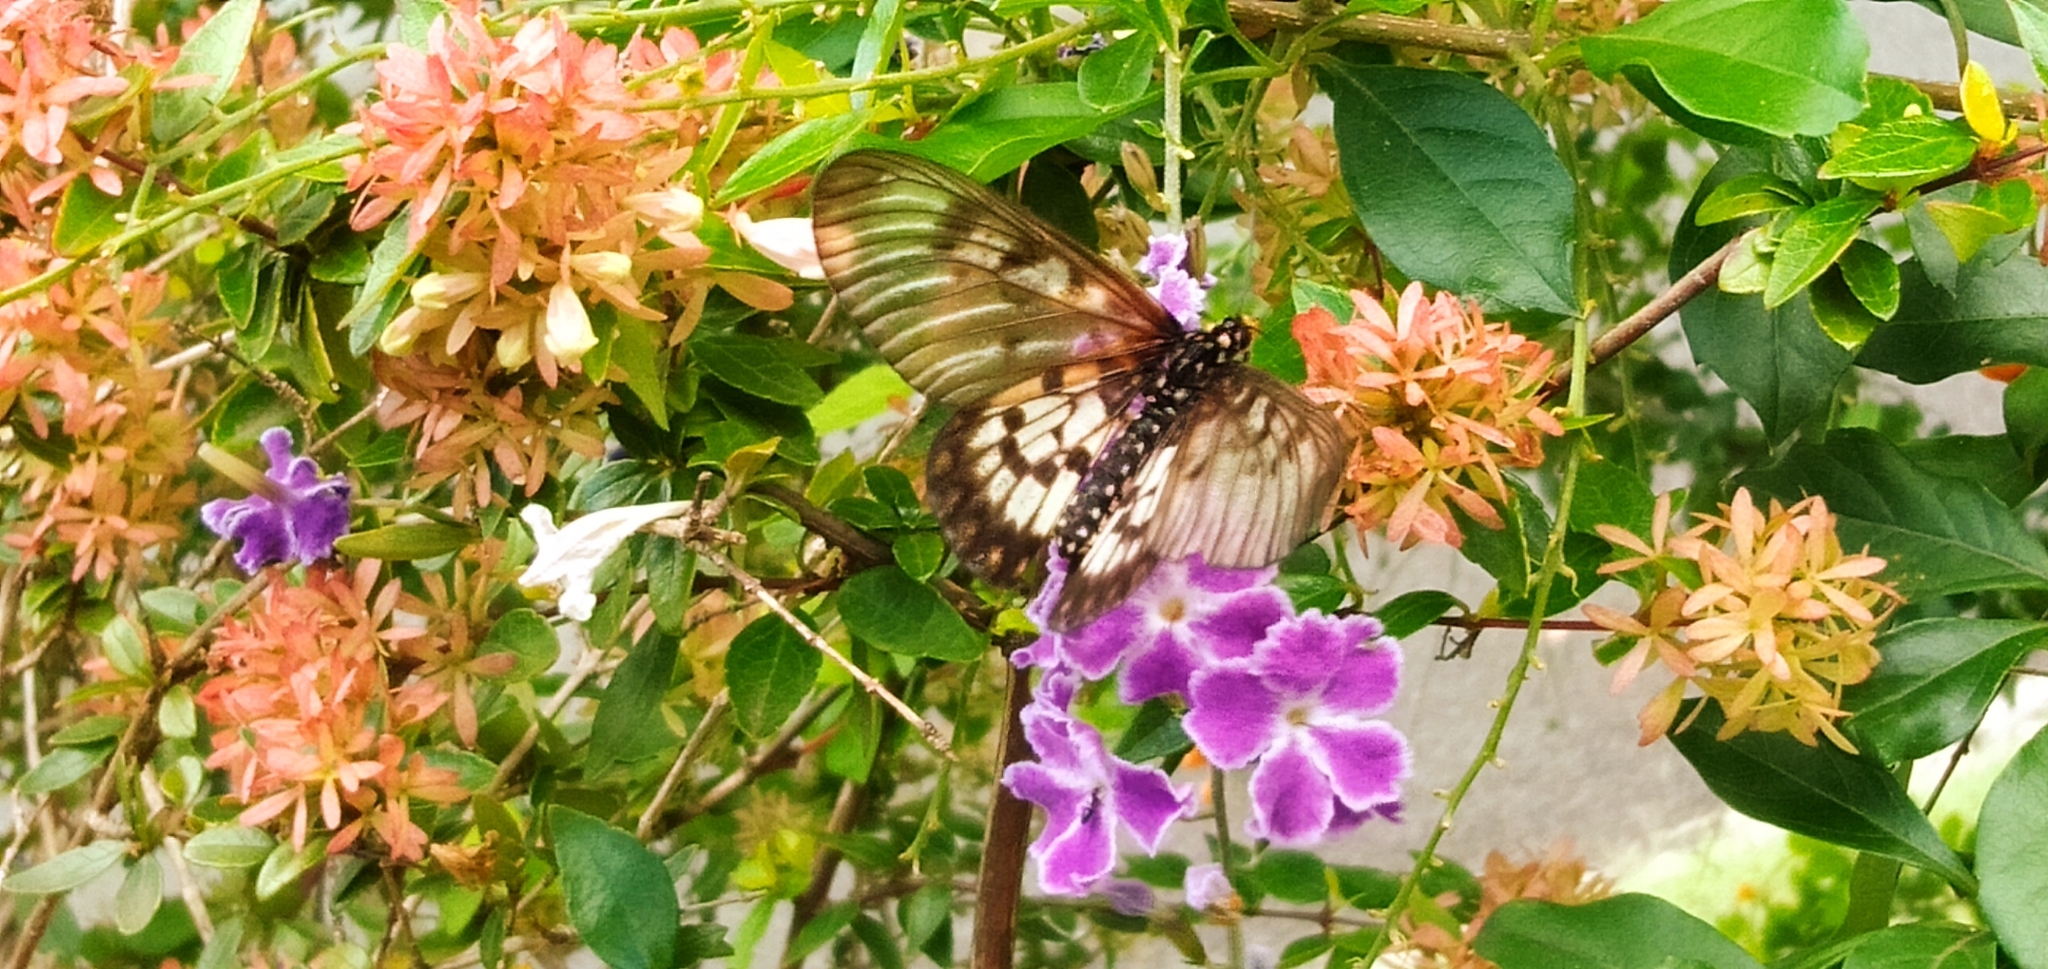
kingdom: Animalia
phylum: Arthropoda
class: Insecta
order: Lepidoptera
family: Nymphalidae
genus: Acraea
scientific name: Acraea andromacha
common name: Glasswing
